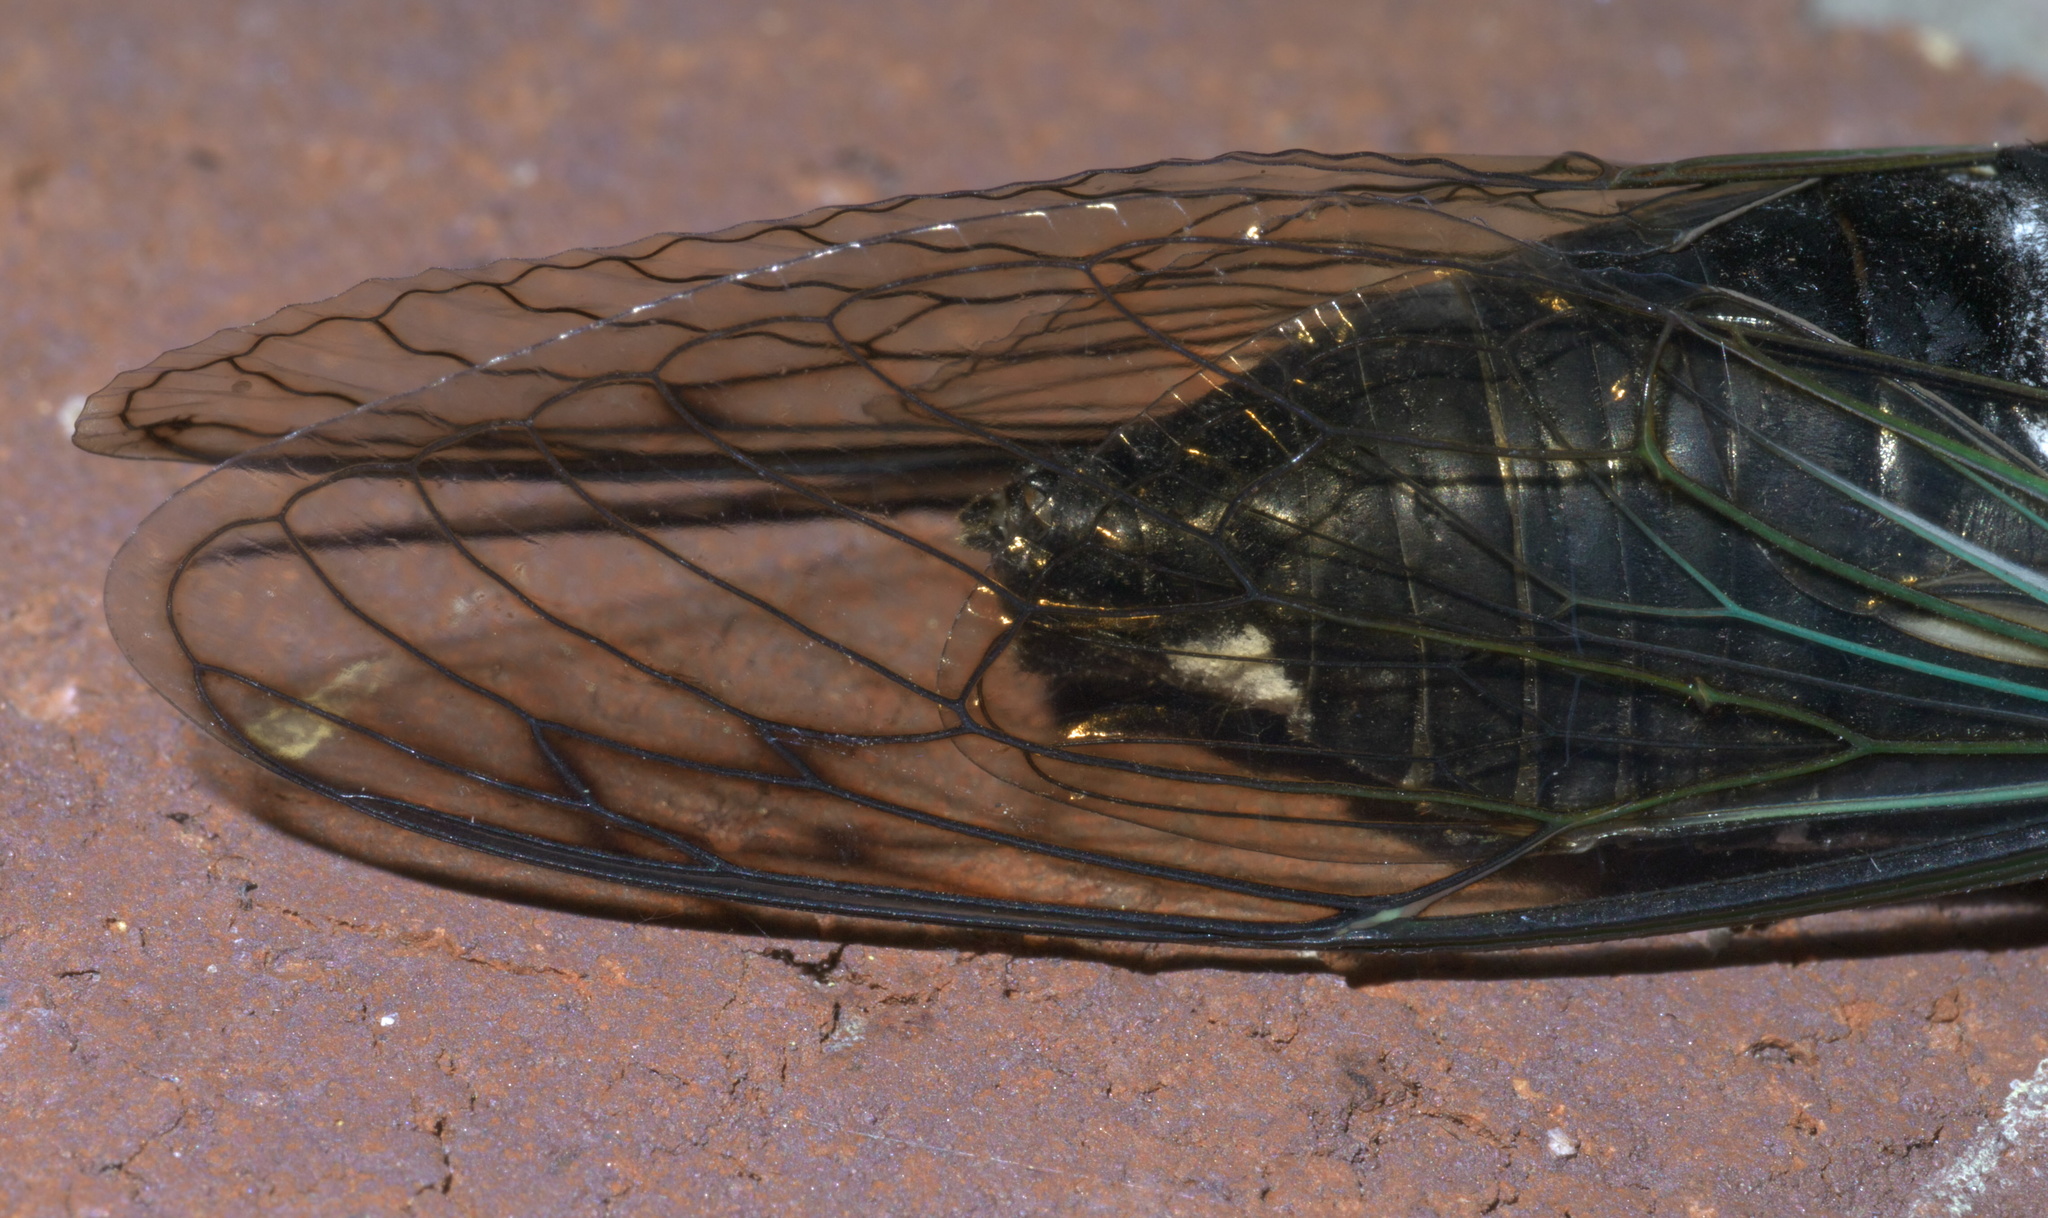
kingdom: Animalia
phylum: Arthropoda
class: Insecta
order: Hemiptera
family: Cicadidae
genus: Neotibicen
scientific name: Neotibicen lyricen
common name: Lyric cicada
